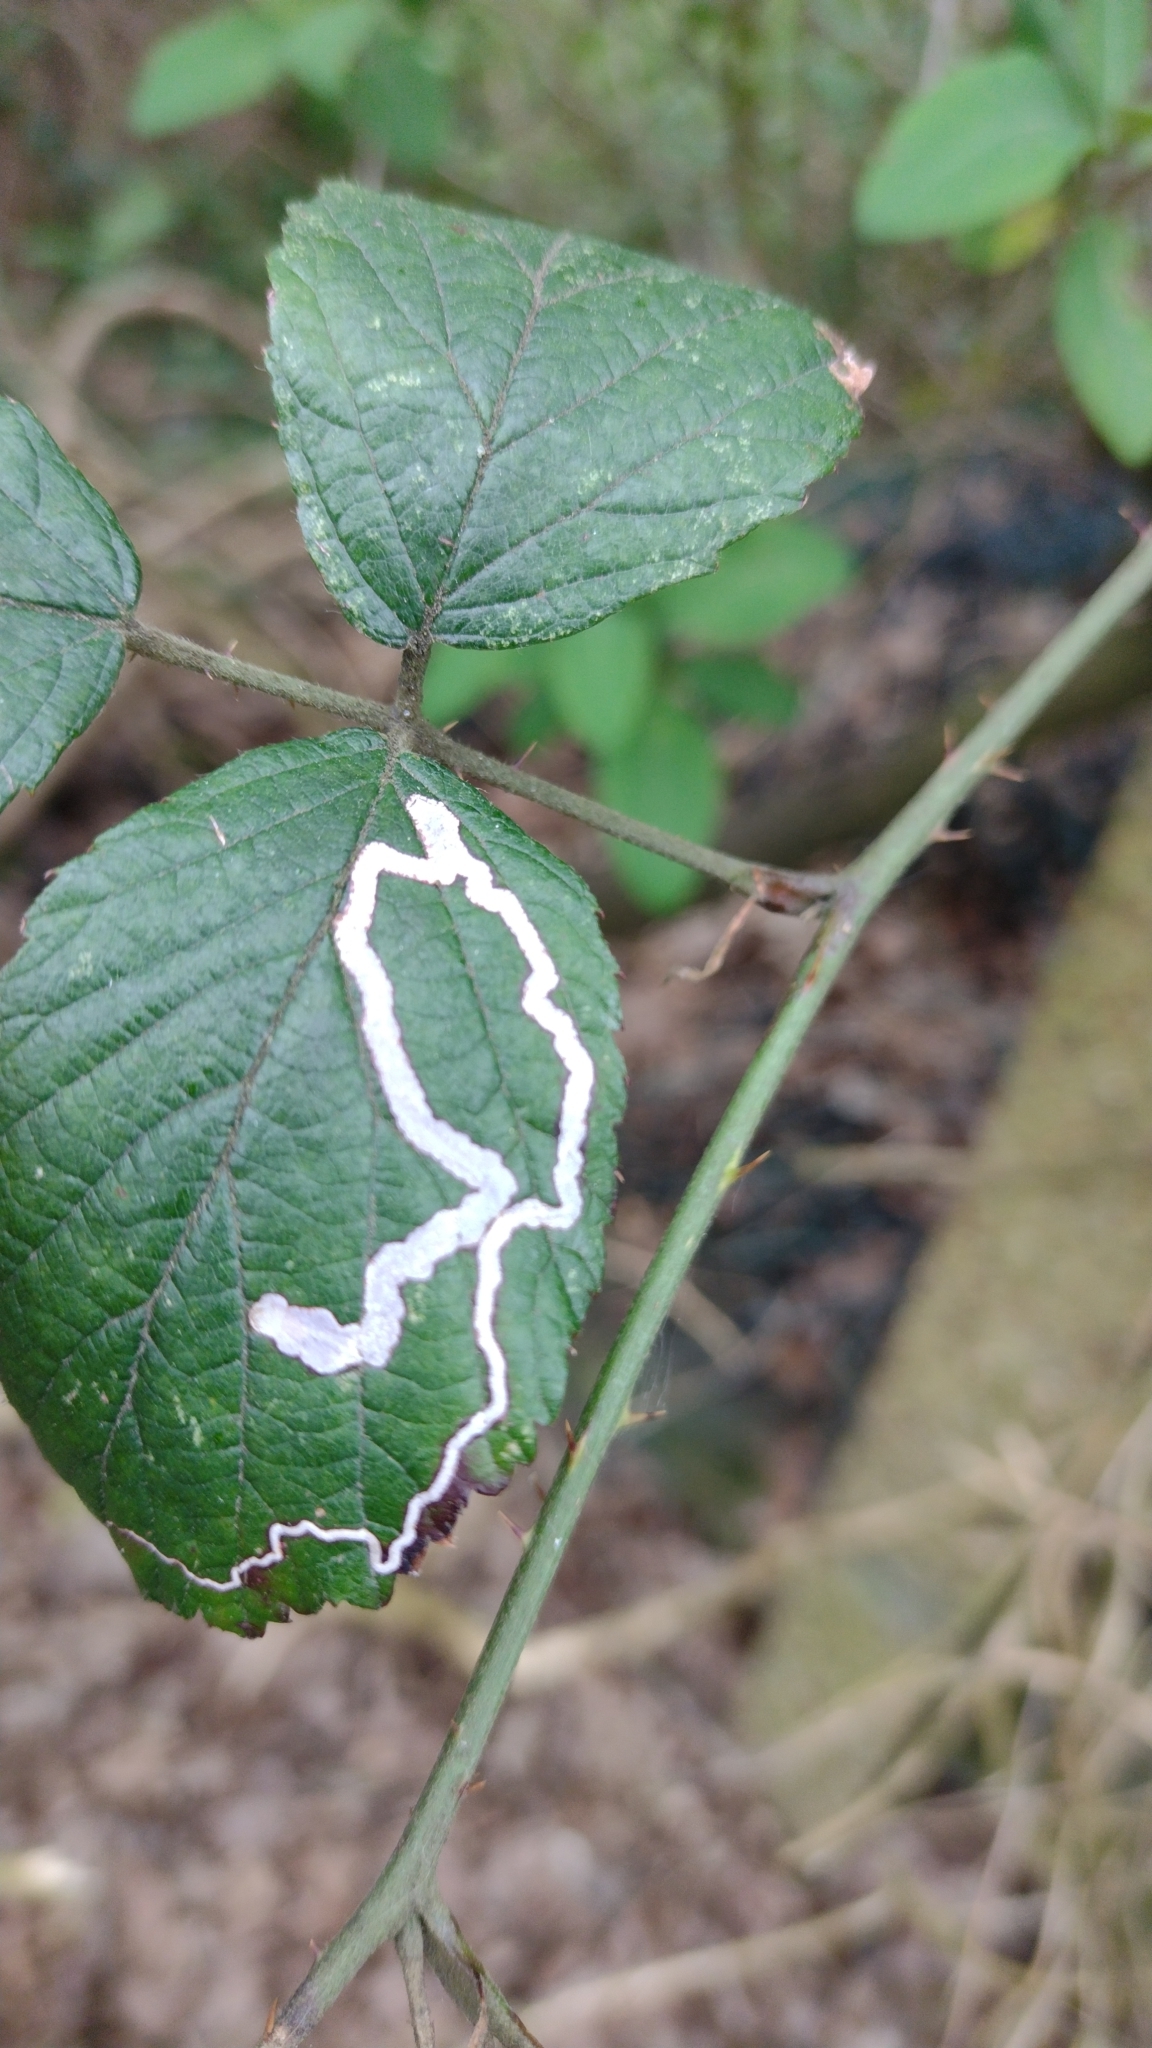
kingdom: Animalia
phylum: Arthropoda
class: Insecta
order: Lepidoptera
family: Nepticulidae
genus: Stigmella
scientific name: Stigmella aurella
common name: Golden pigmy
